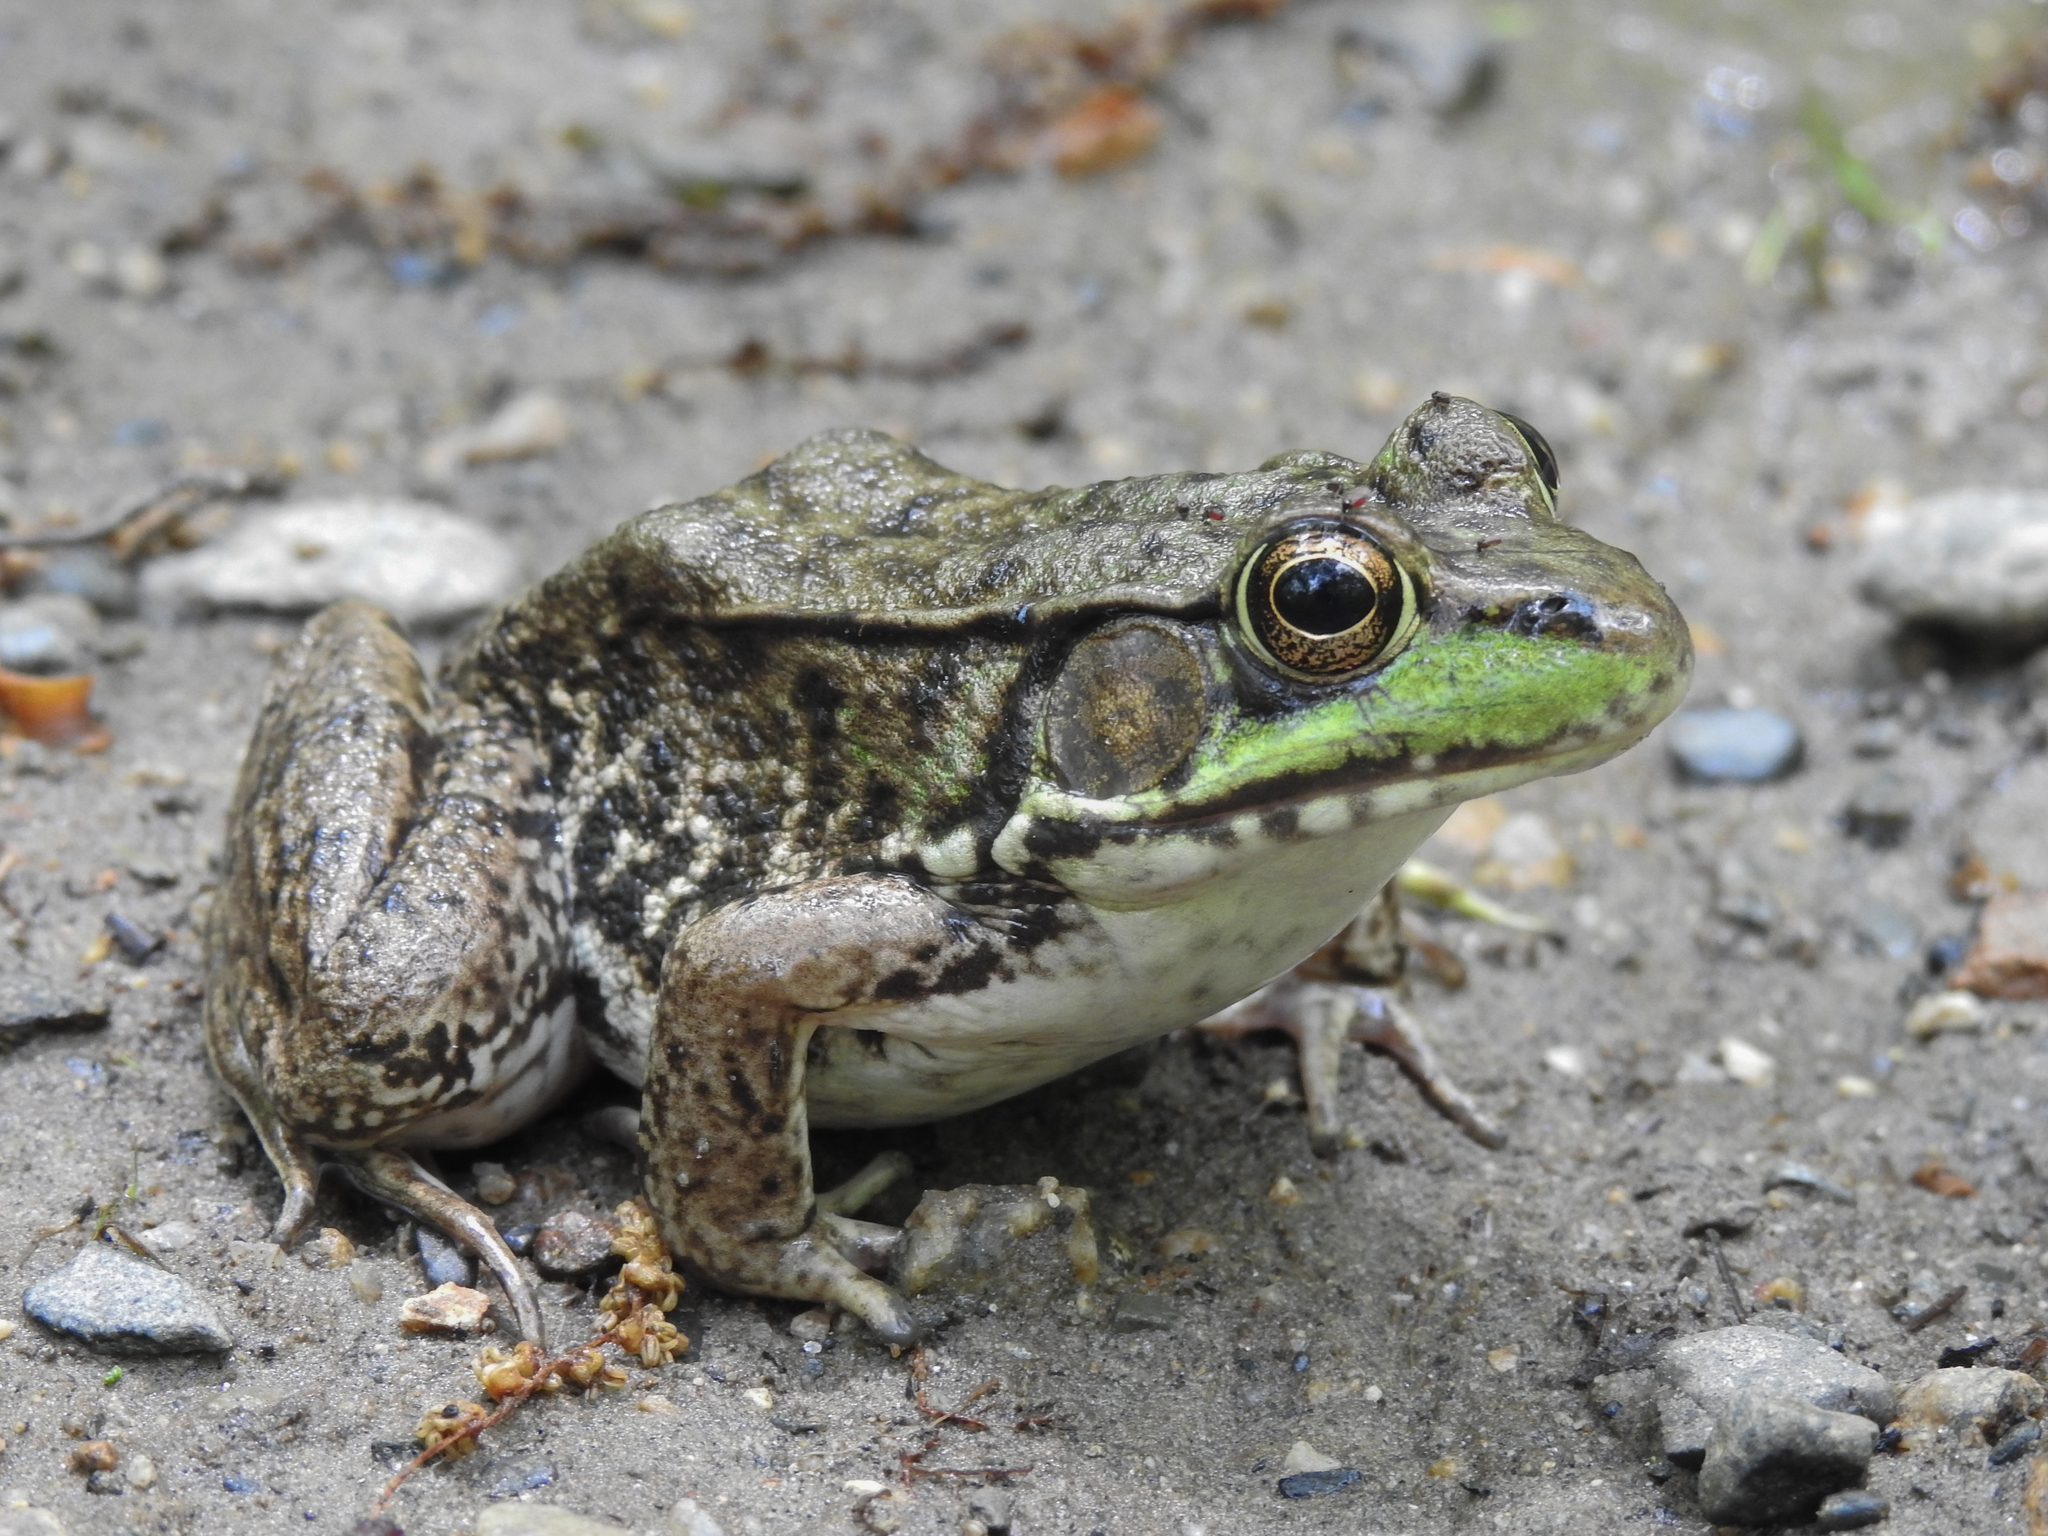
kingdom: Animalia
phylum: Chordata
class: Amphibia
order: Anura
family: Ranidae
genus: Lithobates
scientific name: Lithobates clamitans
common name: Green frog
